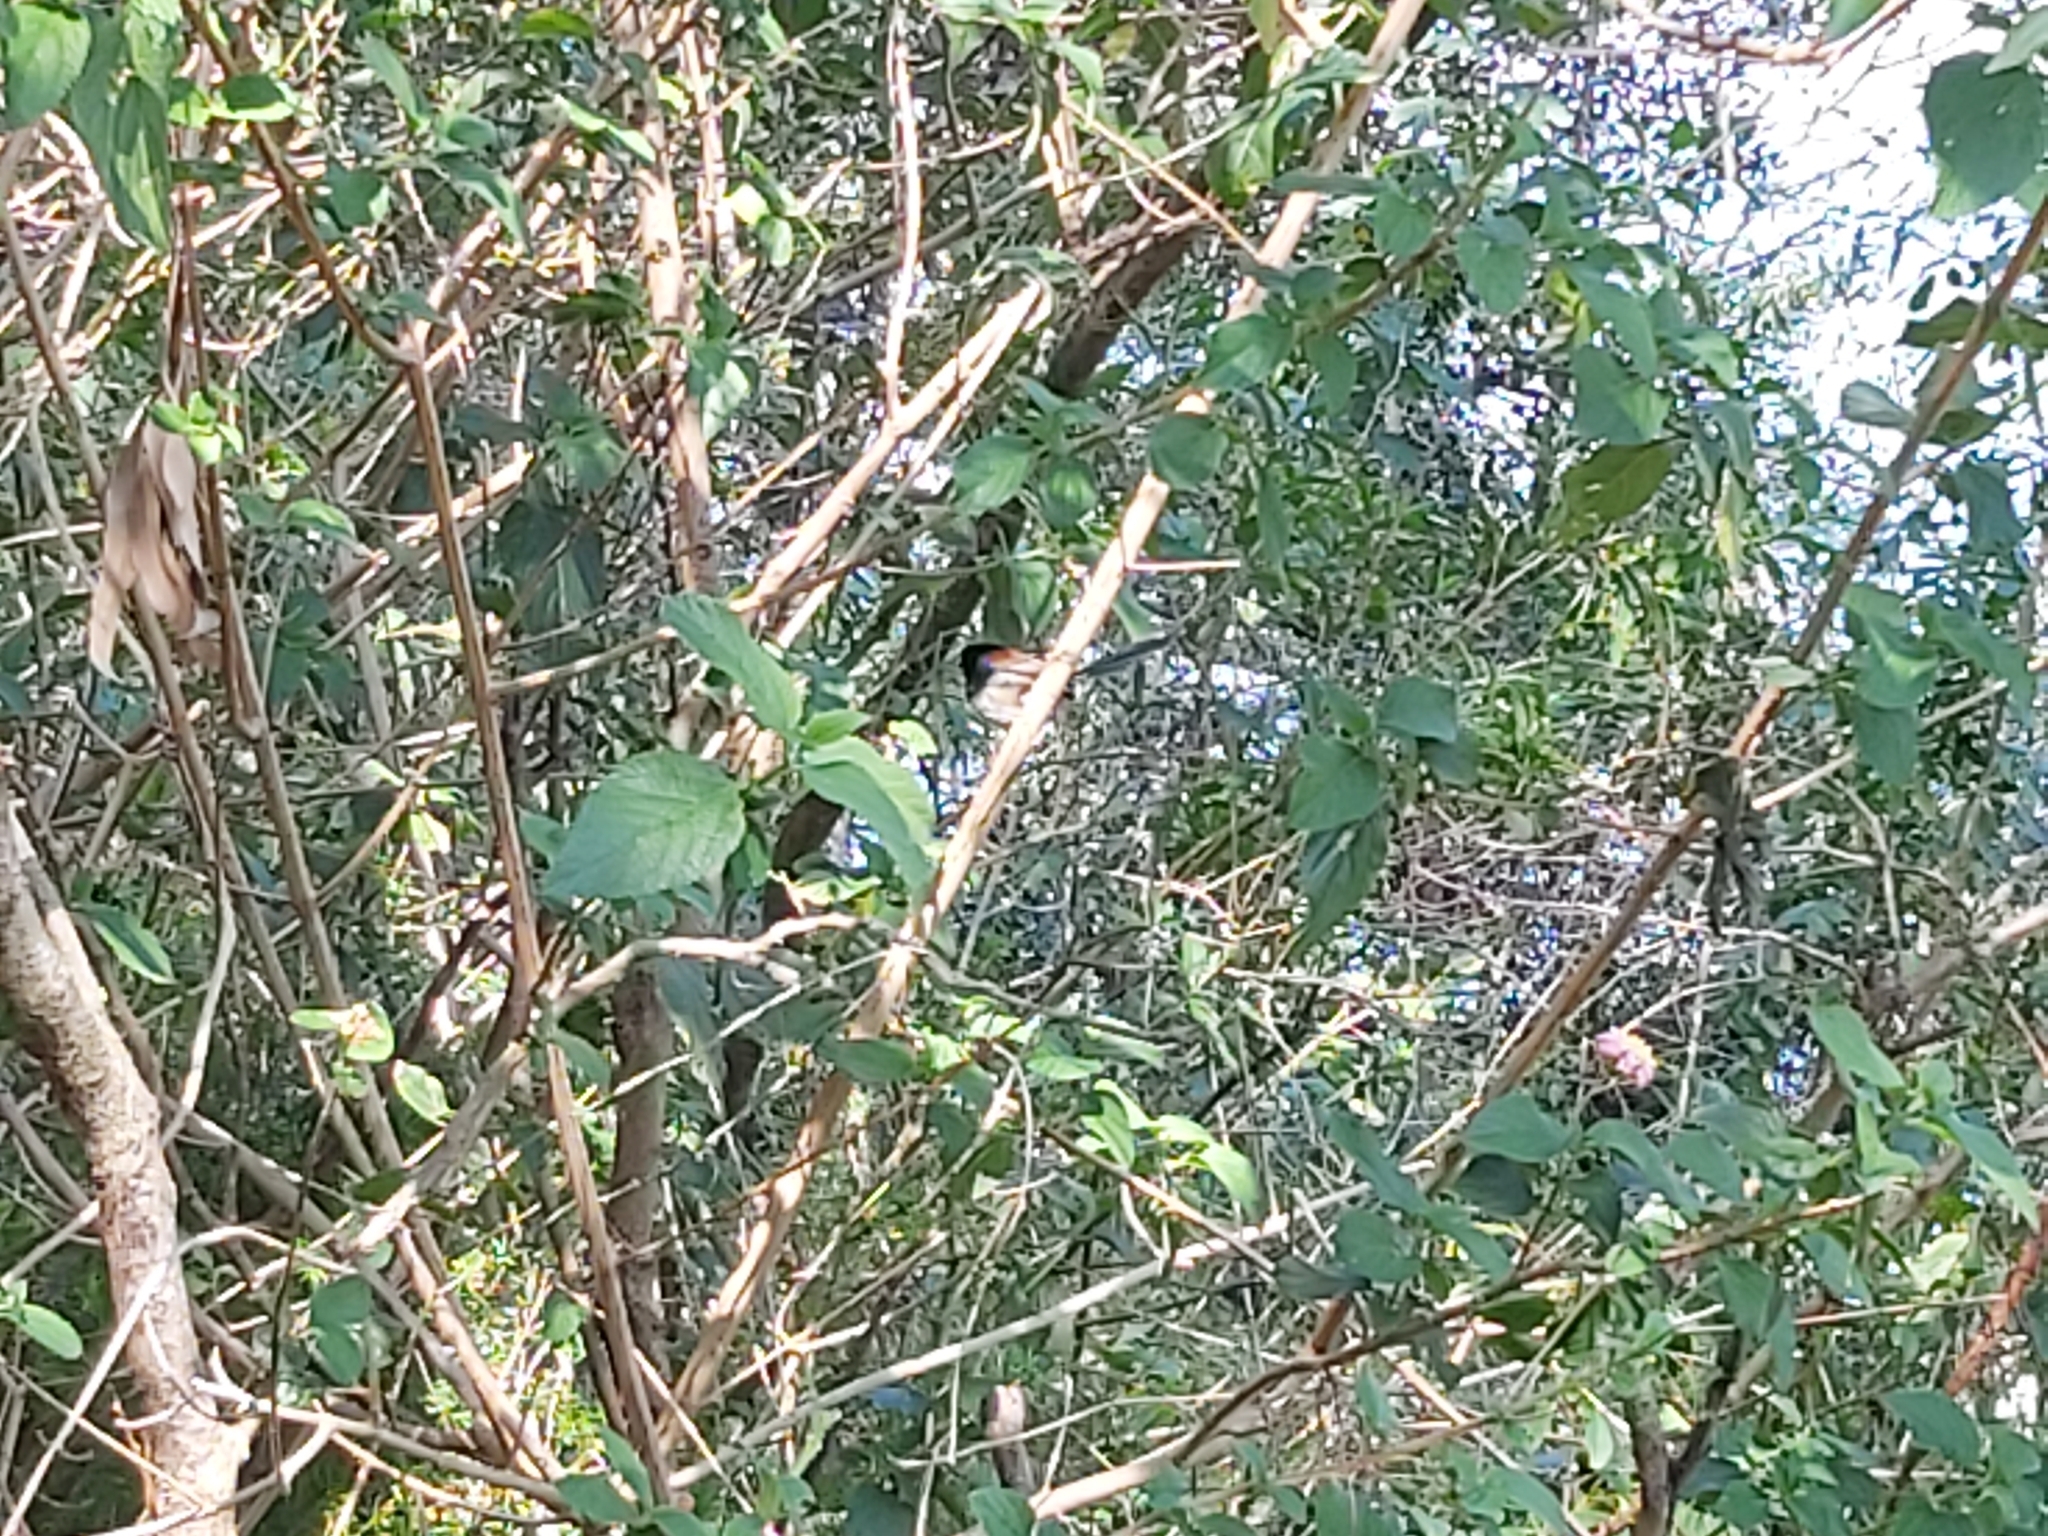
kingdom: Animalia
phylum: Chordata
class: Aves
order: Passeriformes
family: Maluridae
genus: Malurus
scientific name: Malurus lamberti
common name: Variegated fairywren
